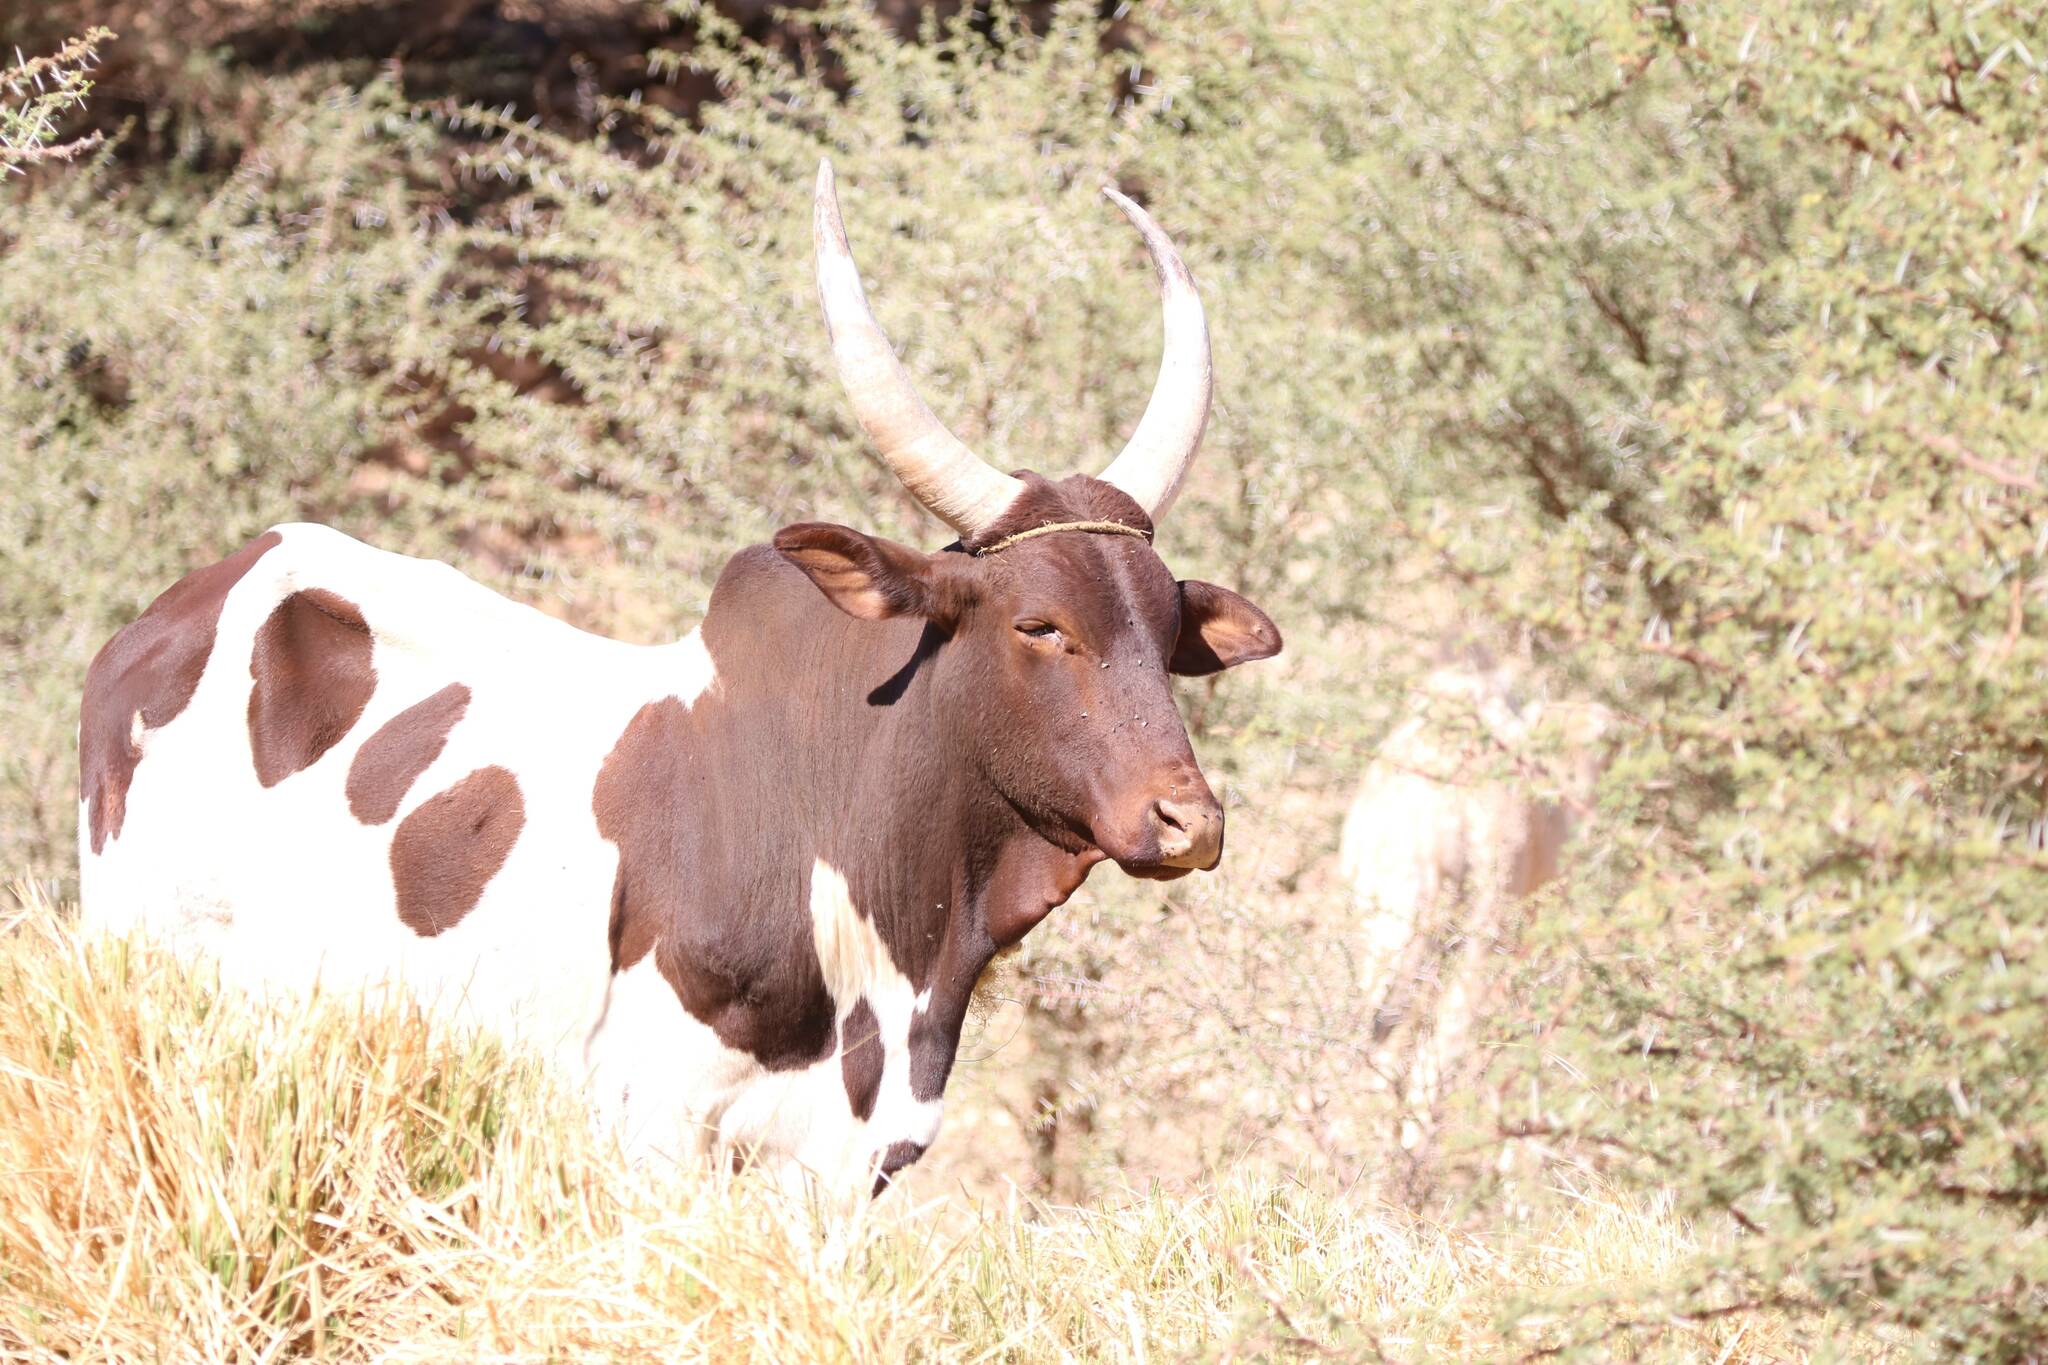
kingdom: Animalia
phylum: Chordata
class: Mammalia
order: Artiodactyla
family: Bovidae
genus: Bos
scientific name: Bos
